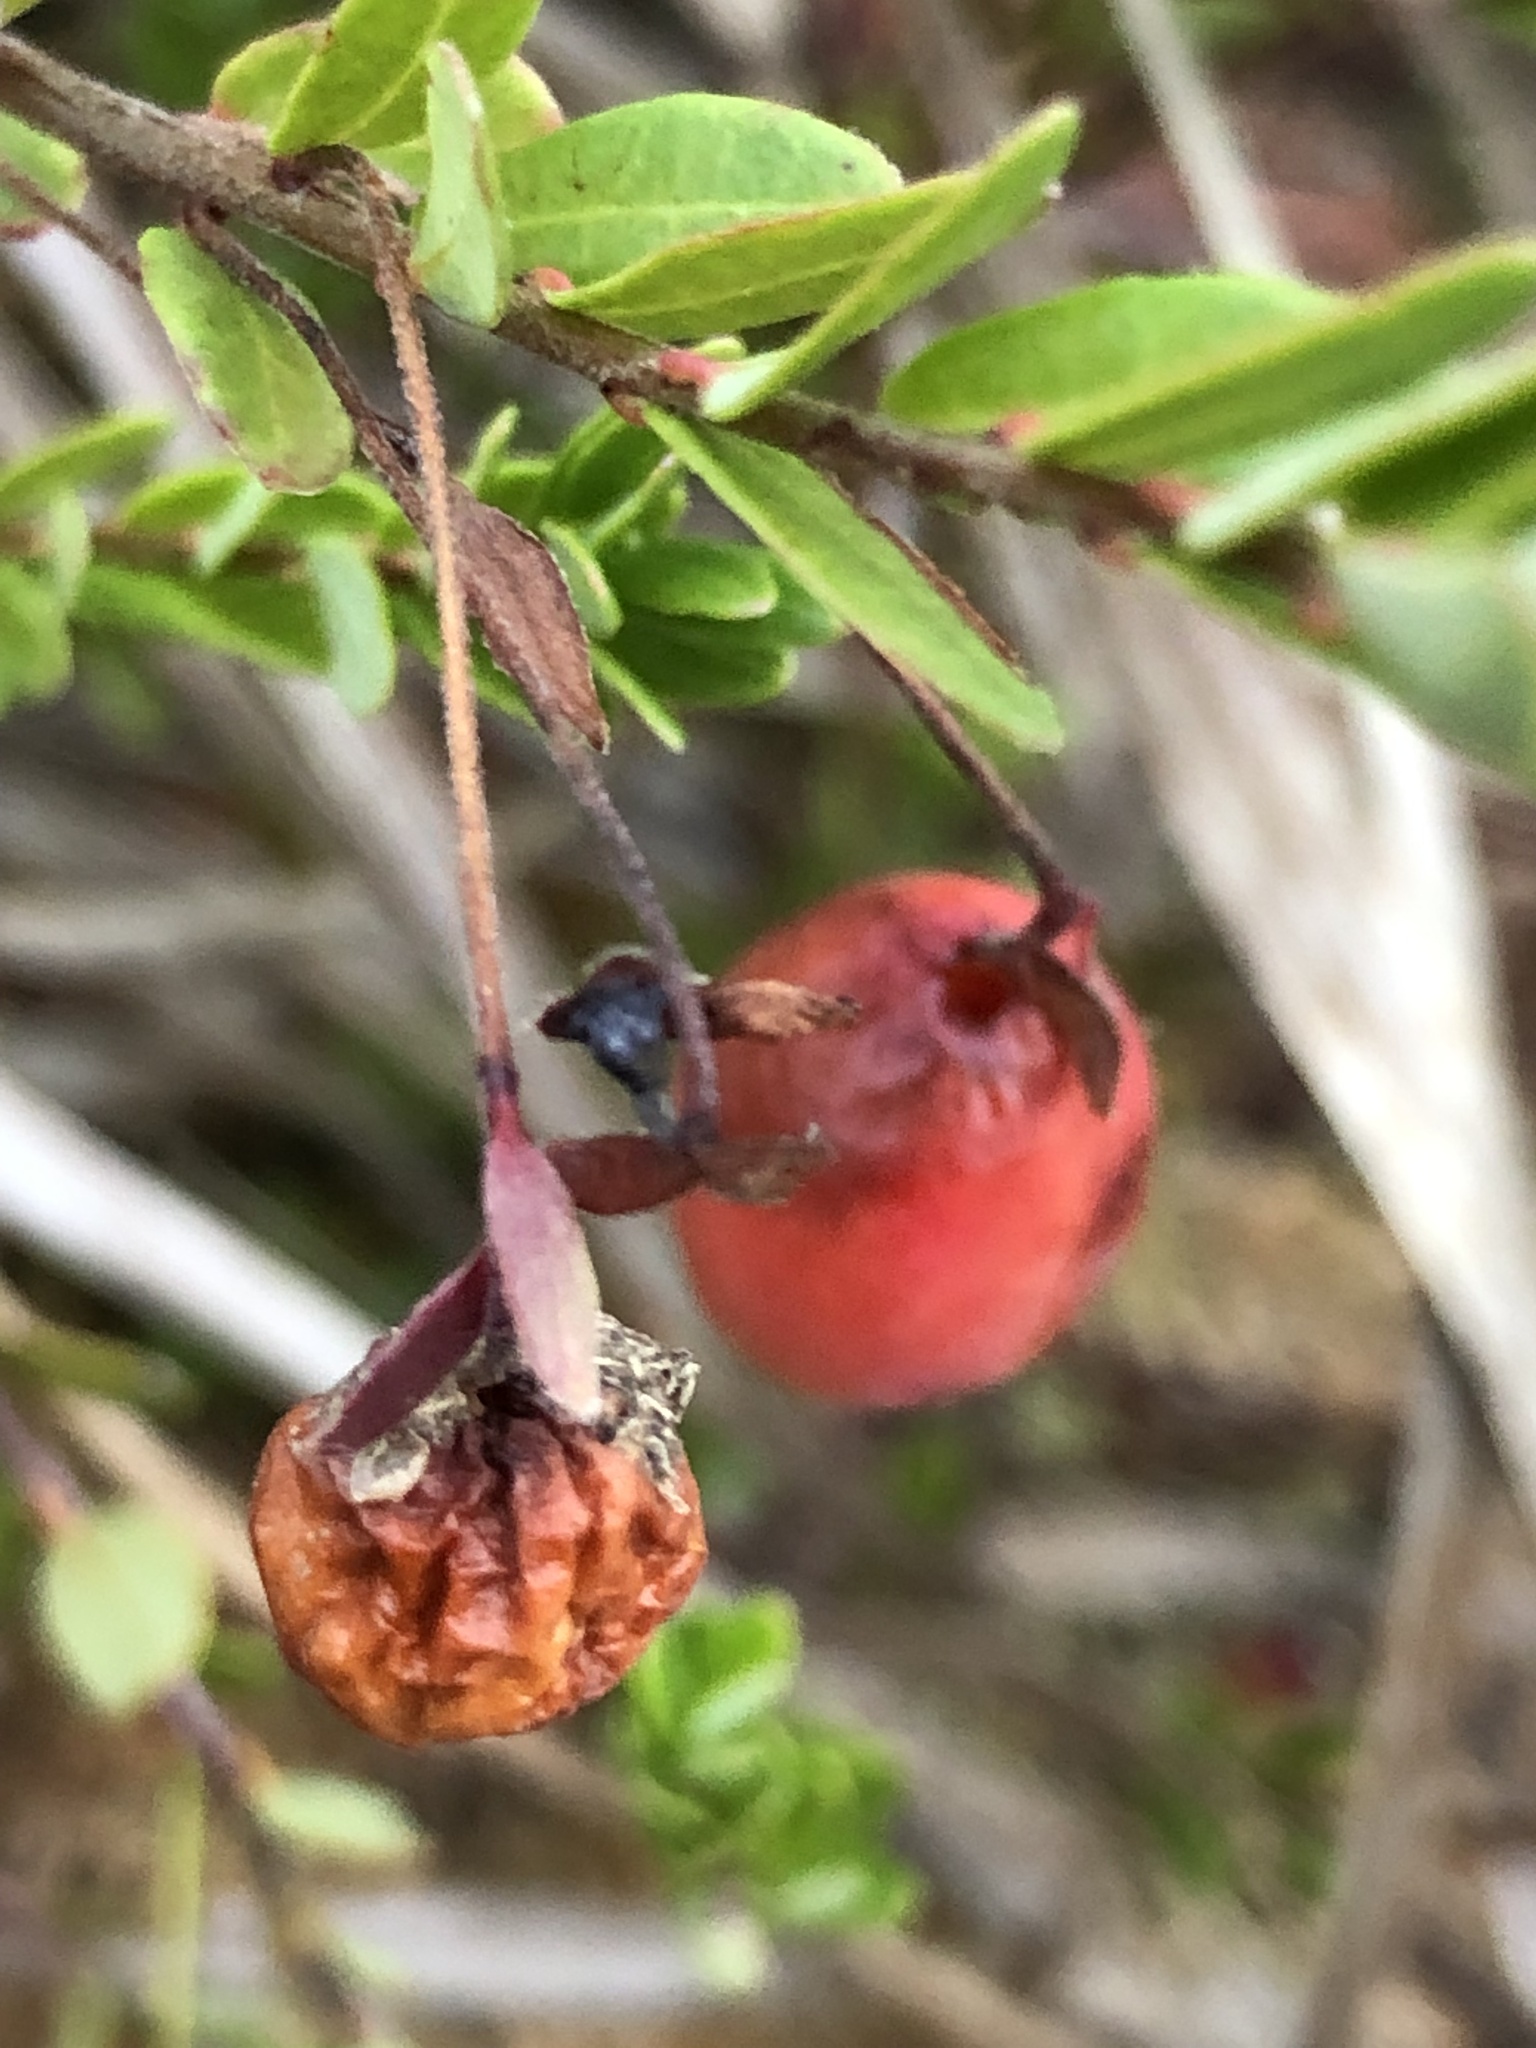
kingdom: Plantae
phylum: Tracheophyta
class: Magnoliopsida
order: Ericales
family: Ericaceae
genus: Vaccinium
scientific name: Vaccinium macrocarpon
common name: American cranberry
